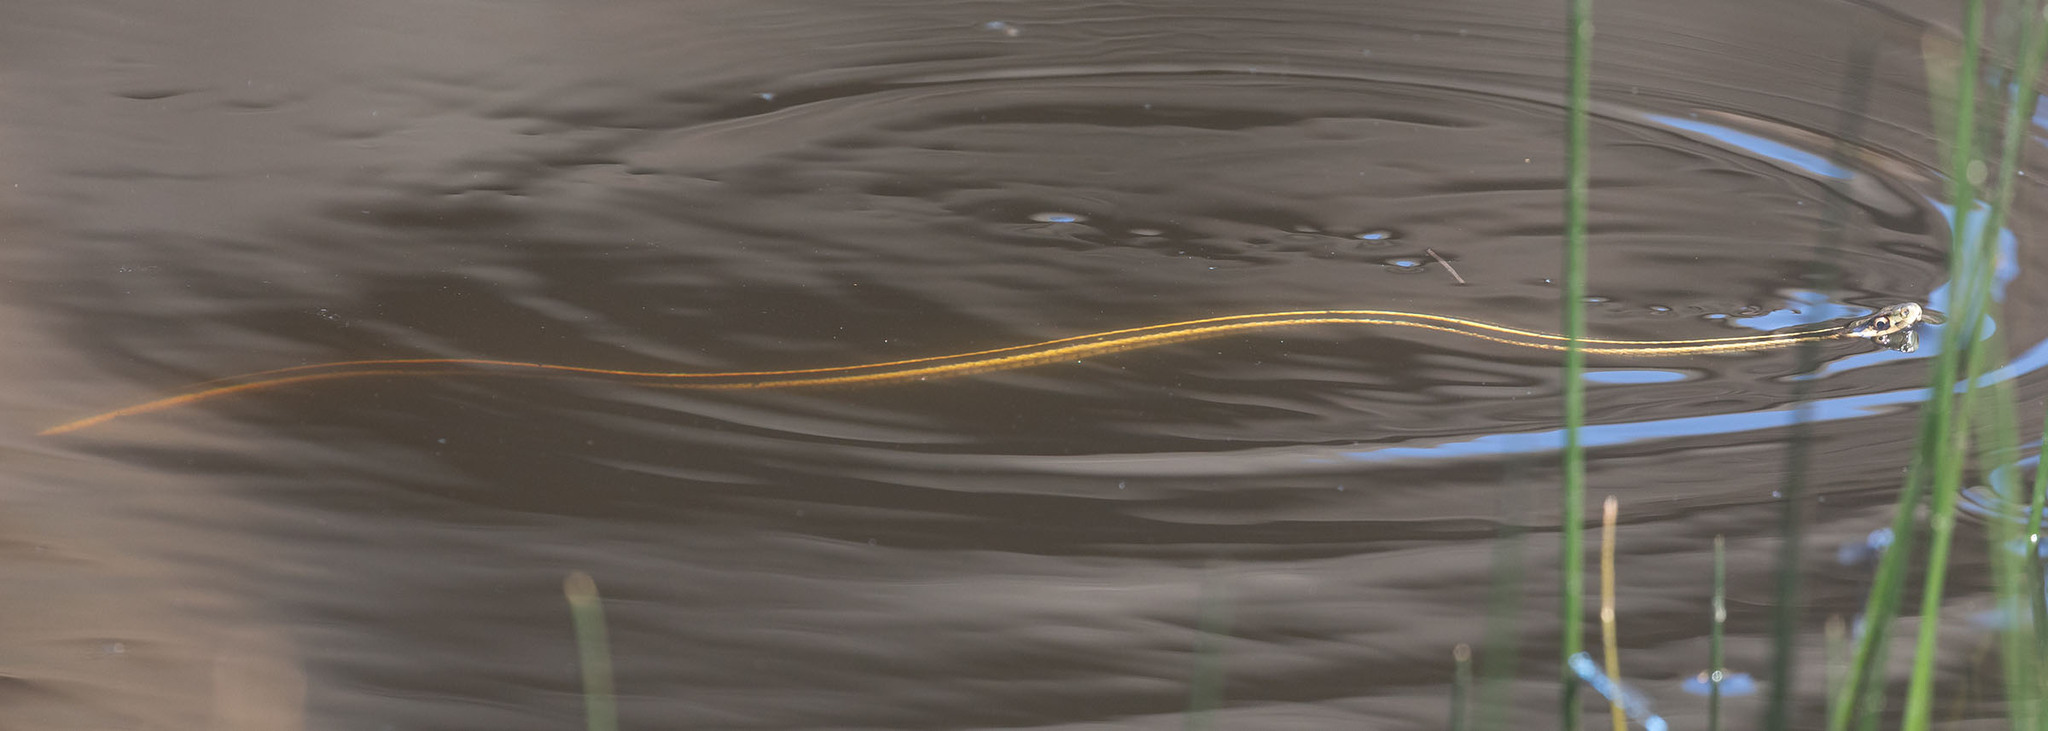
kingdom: Animalia
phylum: Chordata
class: Squamata
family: Colubridae
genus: Thamnophis
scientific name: Thamnophis sirtalis
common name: Common garter snake
